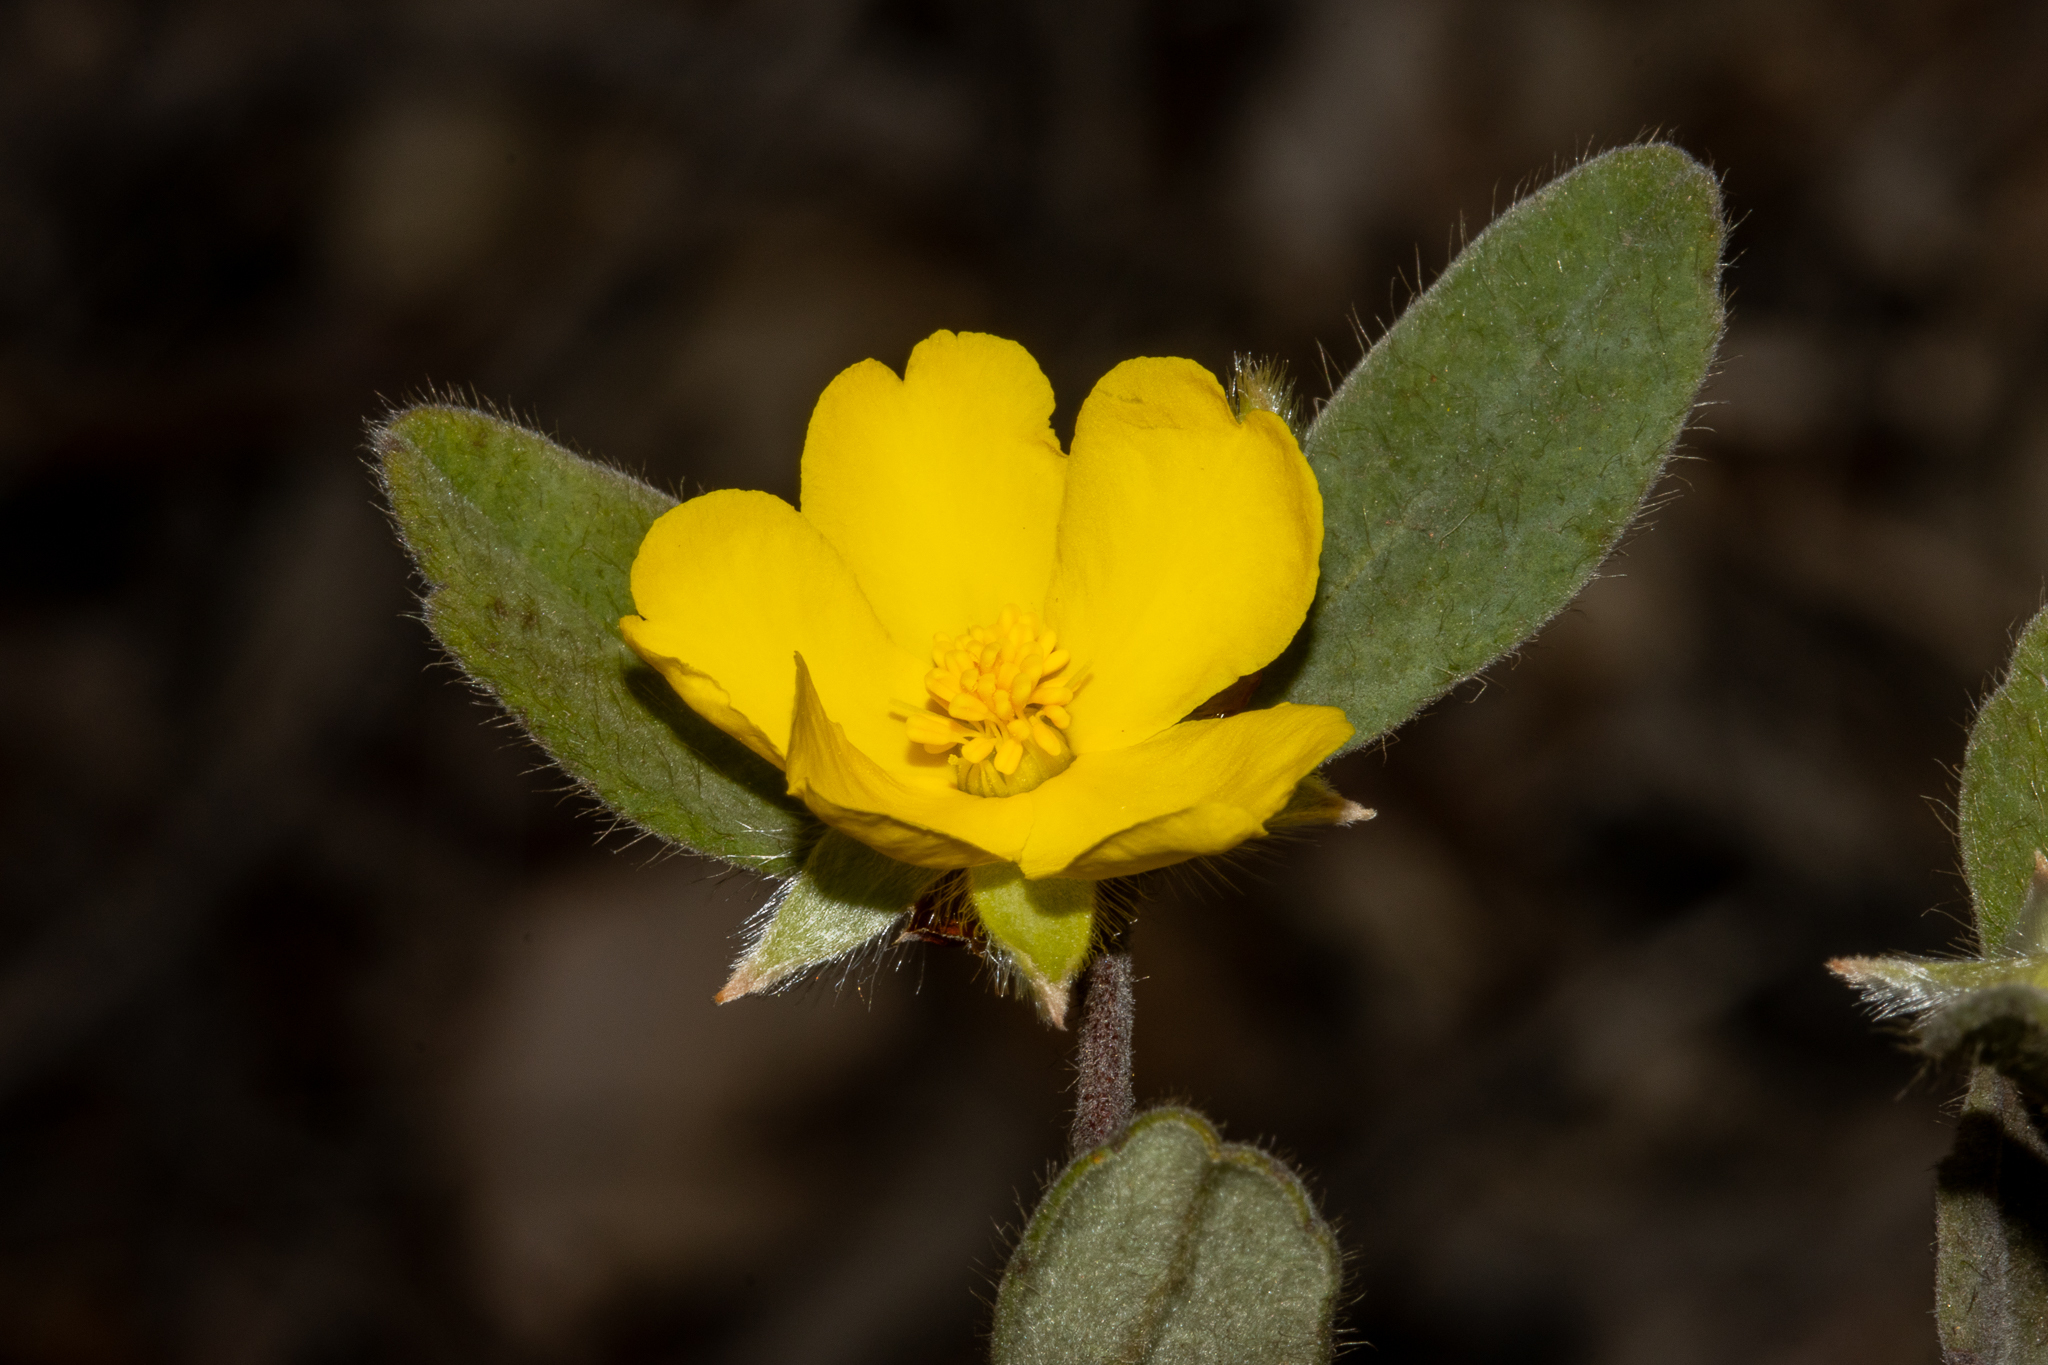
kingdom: Plantae
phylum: Tracheophyta
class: Magnoliopsida
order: Dilleniales
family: Dilleniaceae
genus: Hibbertia
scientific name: Hibbertia quadricolor
